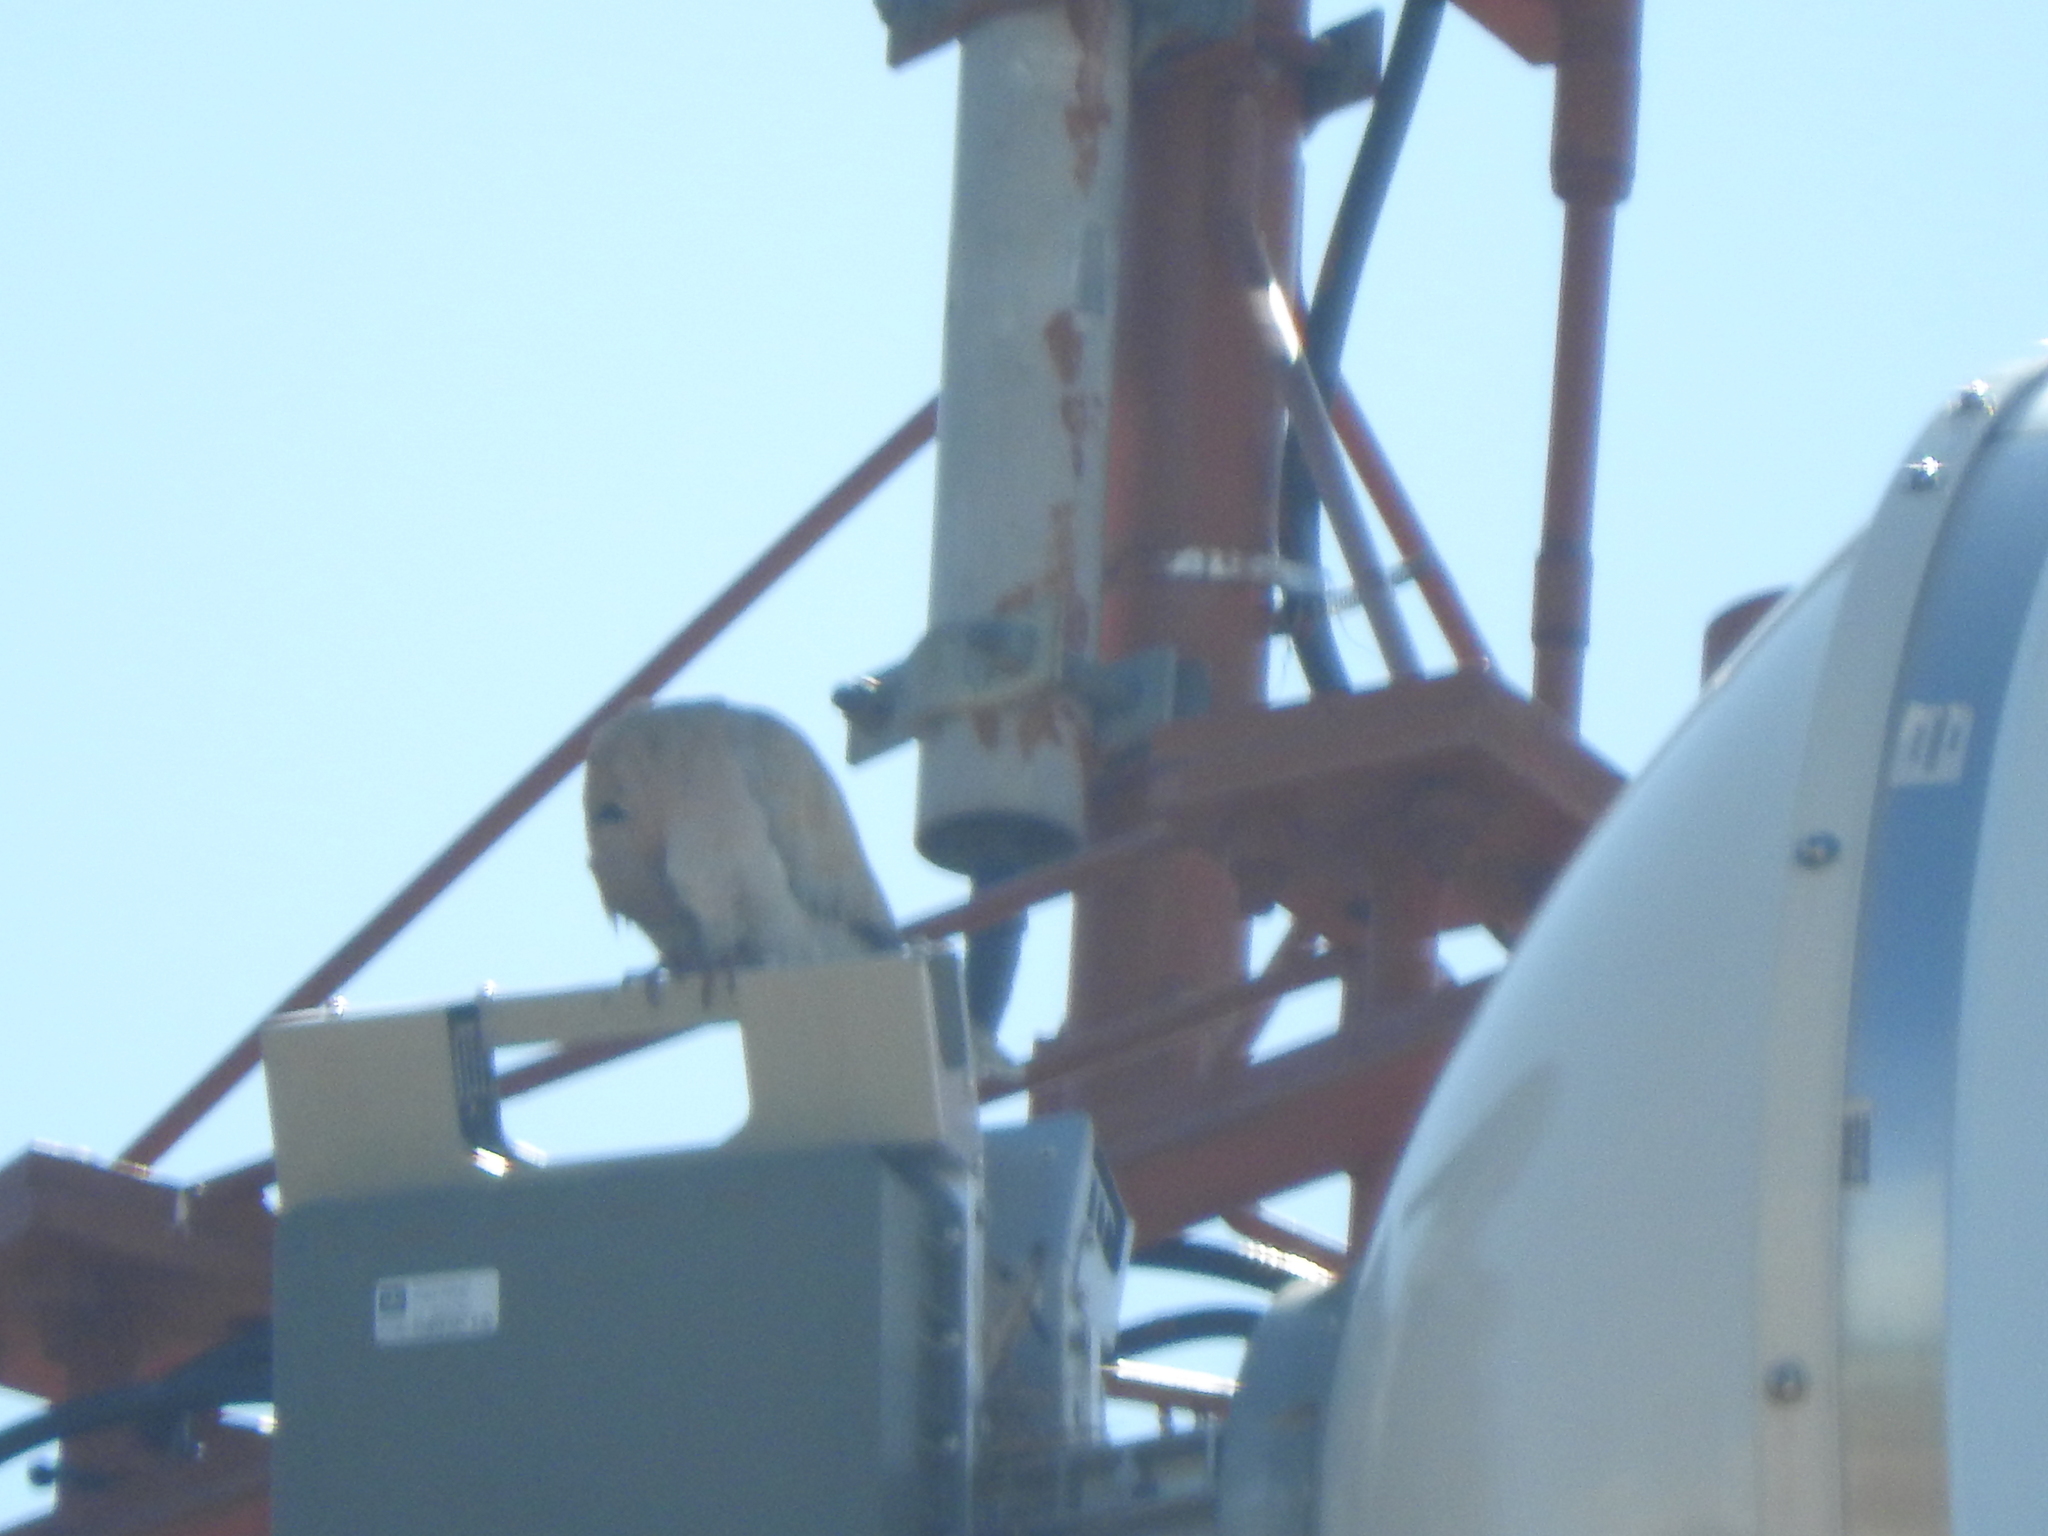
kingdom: Animalia
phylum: Chordata
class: Aves
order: Columbiformes
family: Columbidae
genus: Streptopelia
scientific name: Streptopelia decaocto
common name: Eurasian collared dove
